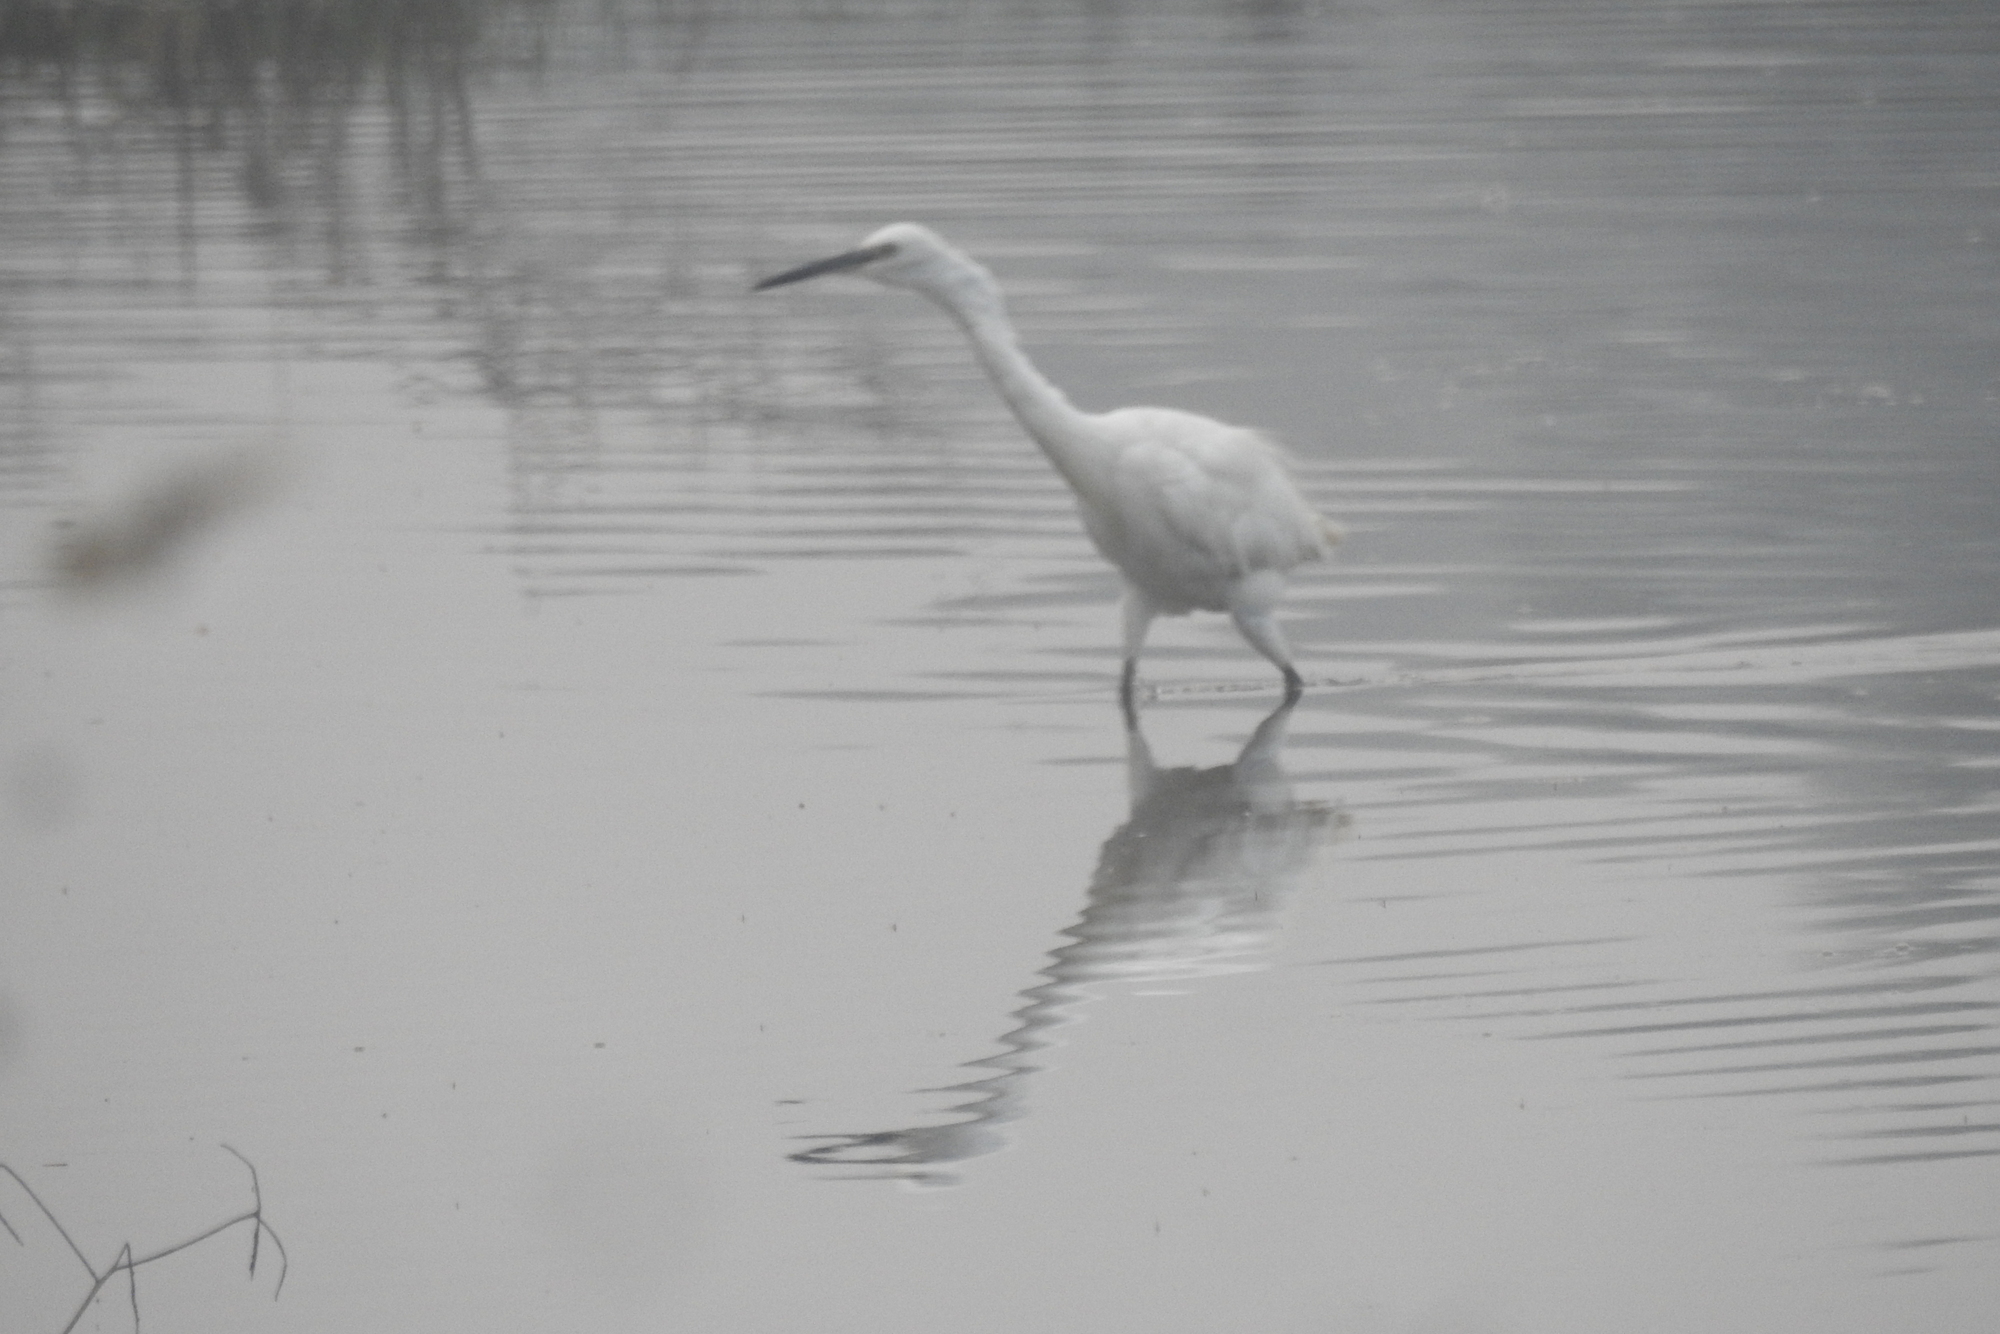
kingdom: Animalia
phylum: Chordata
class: Aves
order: Pelecaniformes
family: Ardeidae
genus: Egretta
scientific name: Egretta garzetta
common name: Little egret
